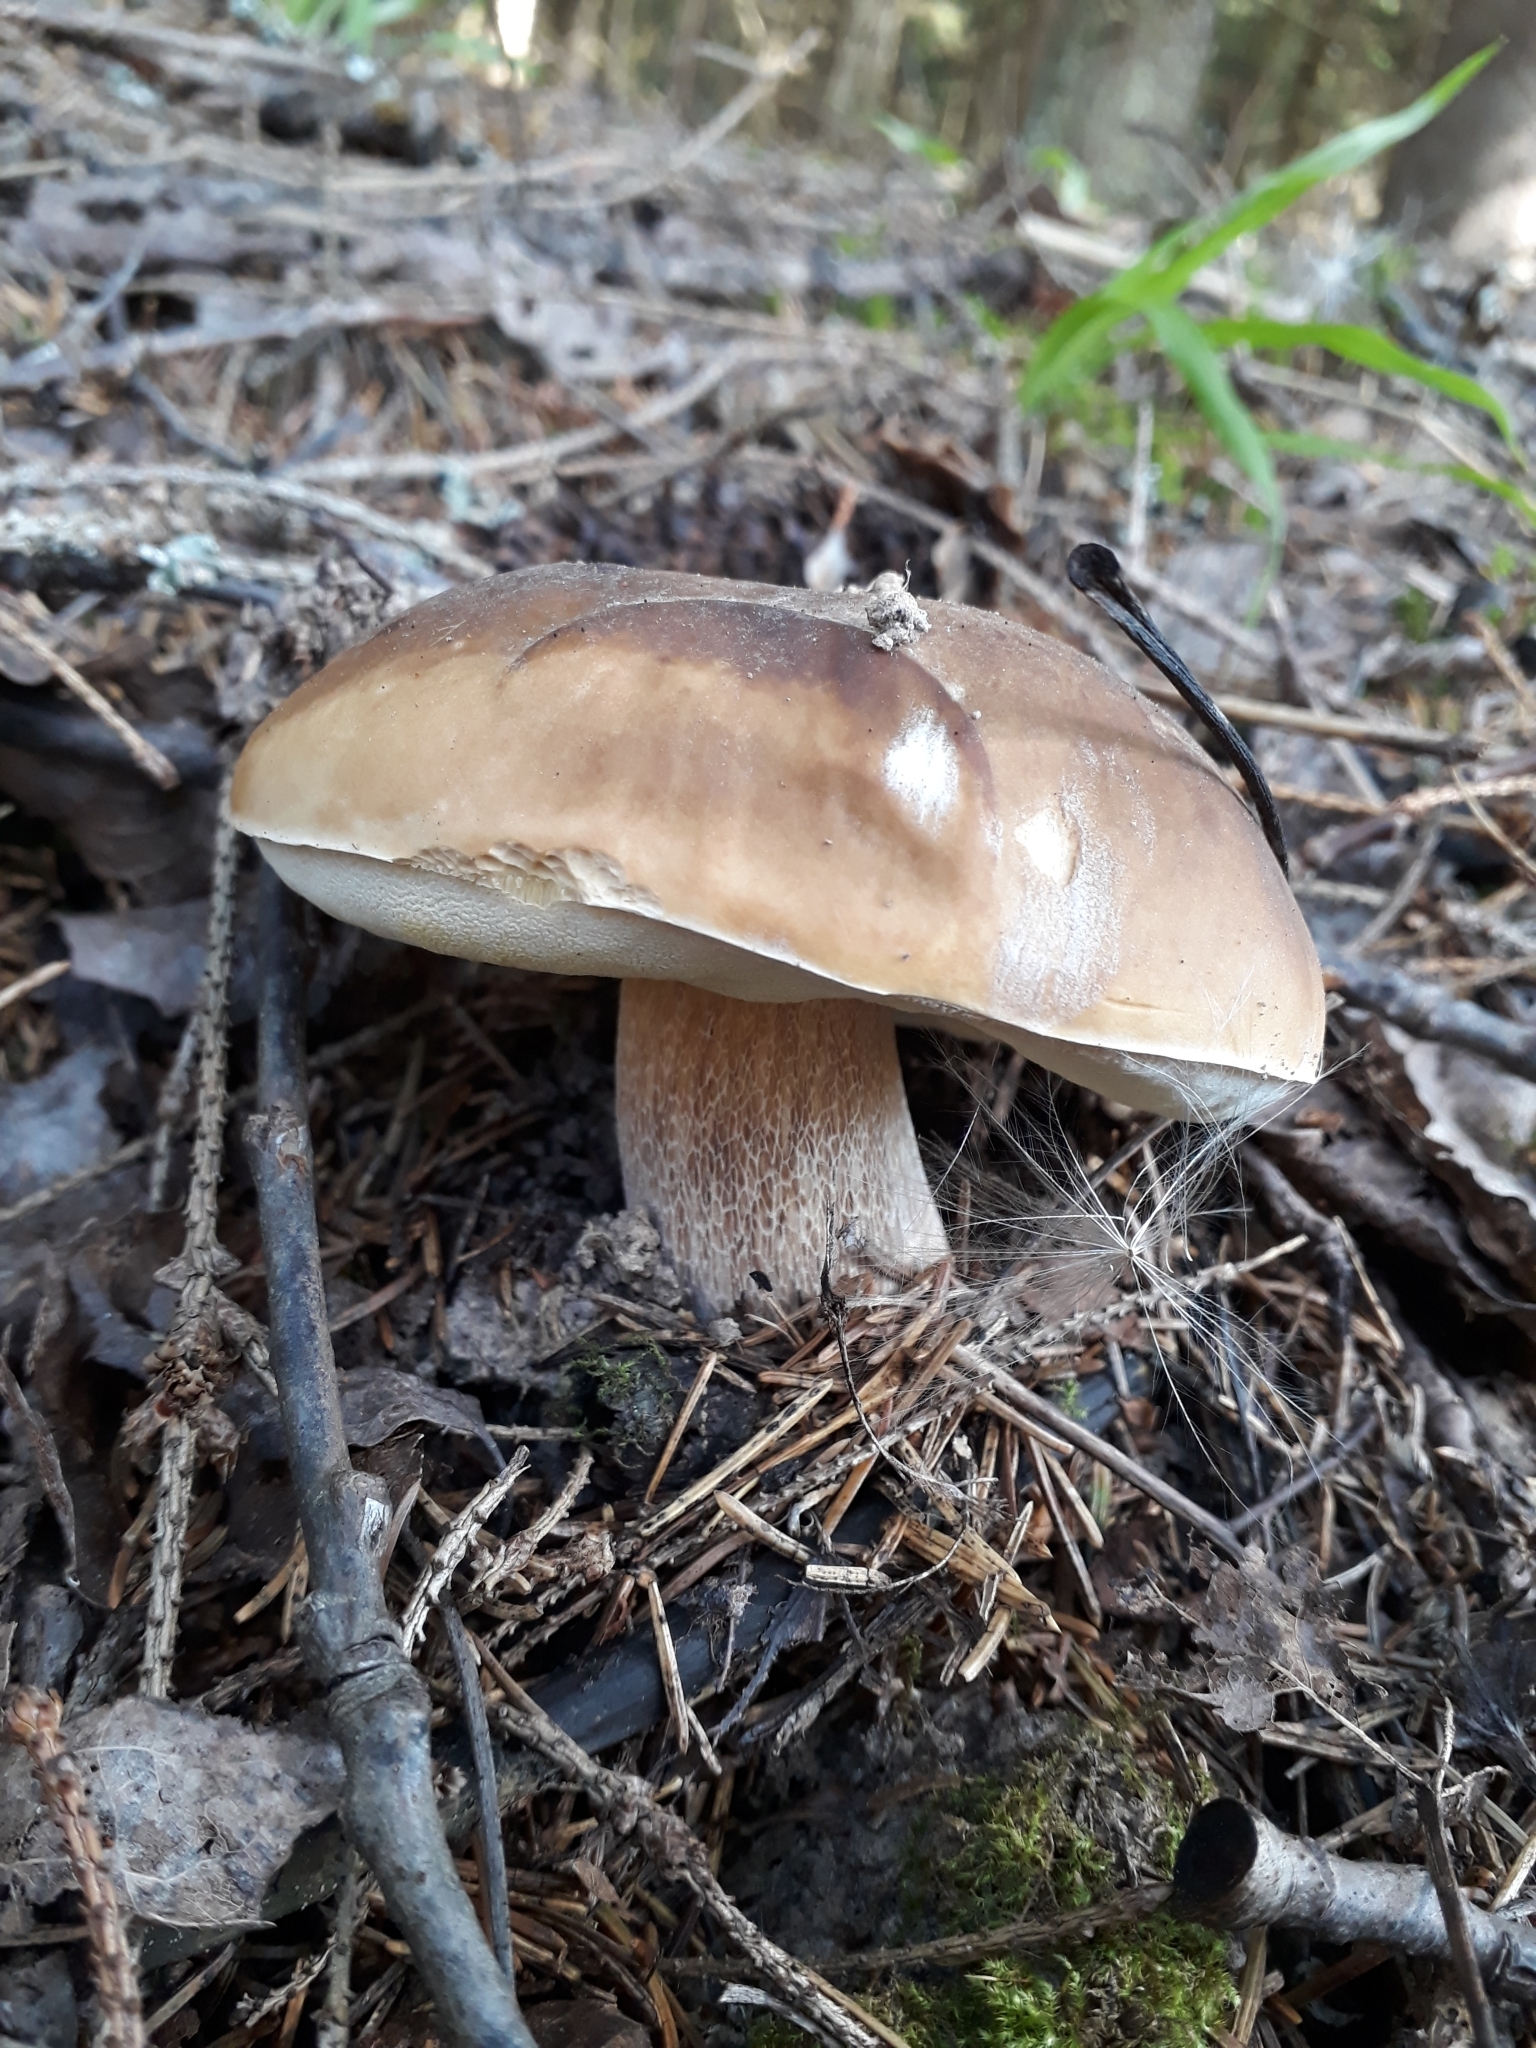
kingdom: Fungi
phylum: Basidiomycota
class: Agaricomycetes
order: Boletales
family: Boletaceae
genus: Boletus
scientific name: Boletus edulis
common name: Cep
